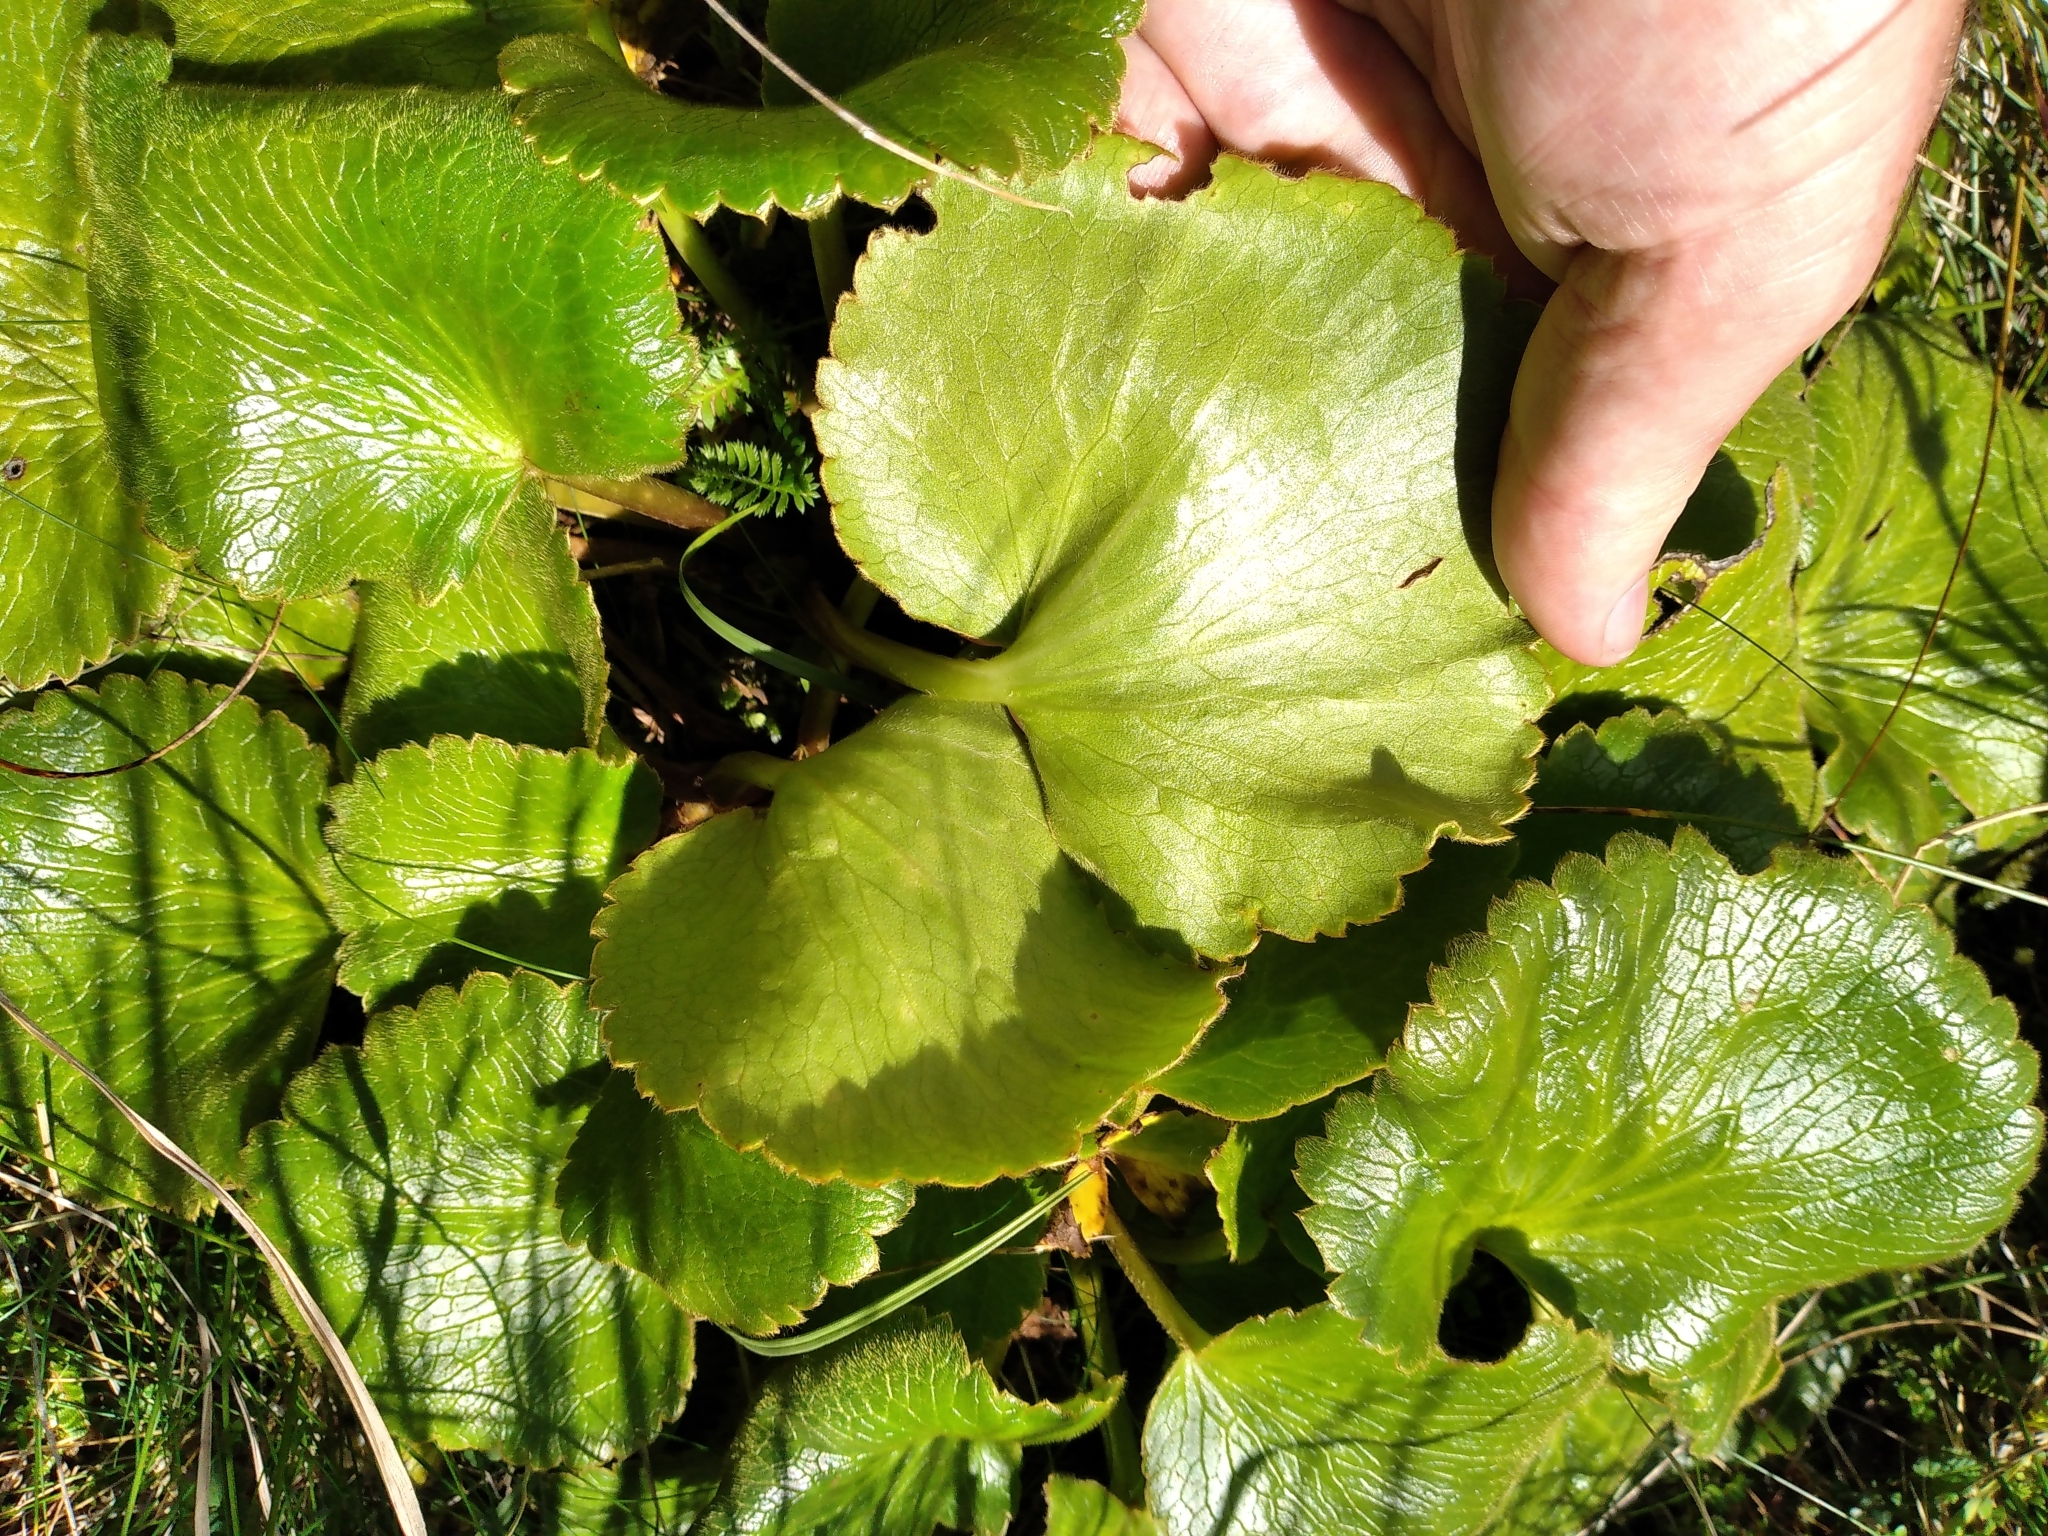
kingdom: Plantae
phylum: Tracheophyta
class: Magnoliopsida
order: Ranunculales
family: Ranunculaceae
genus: Ranunculus
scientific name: Ranunculus insignis
